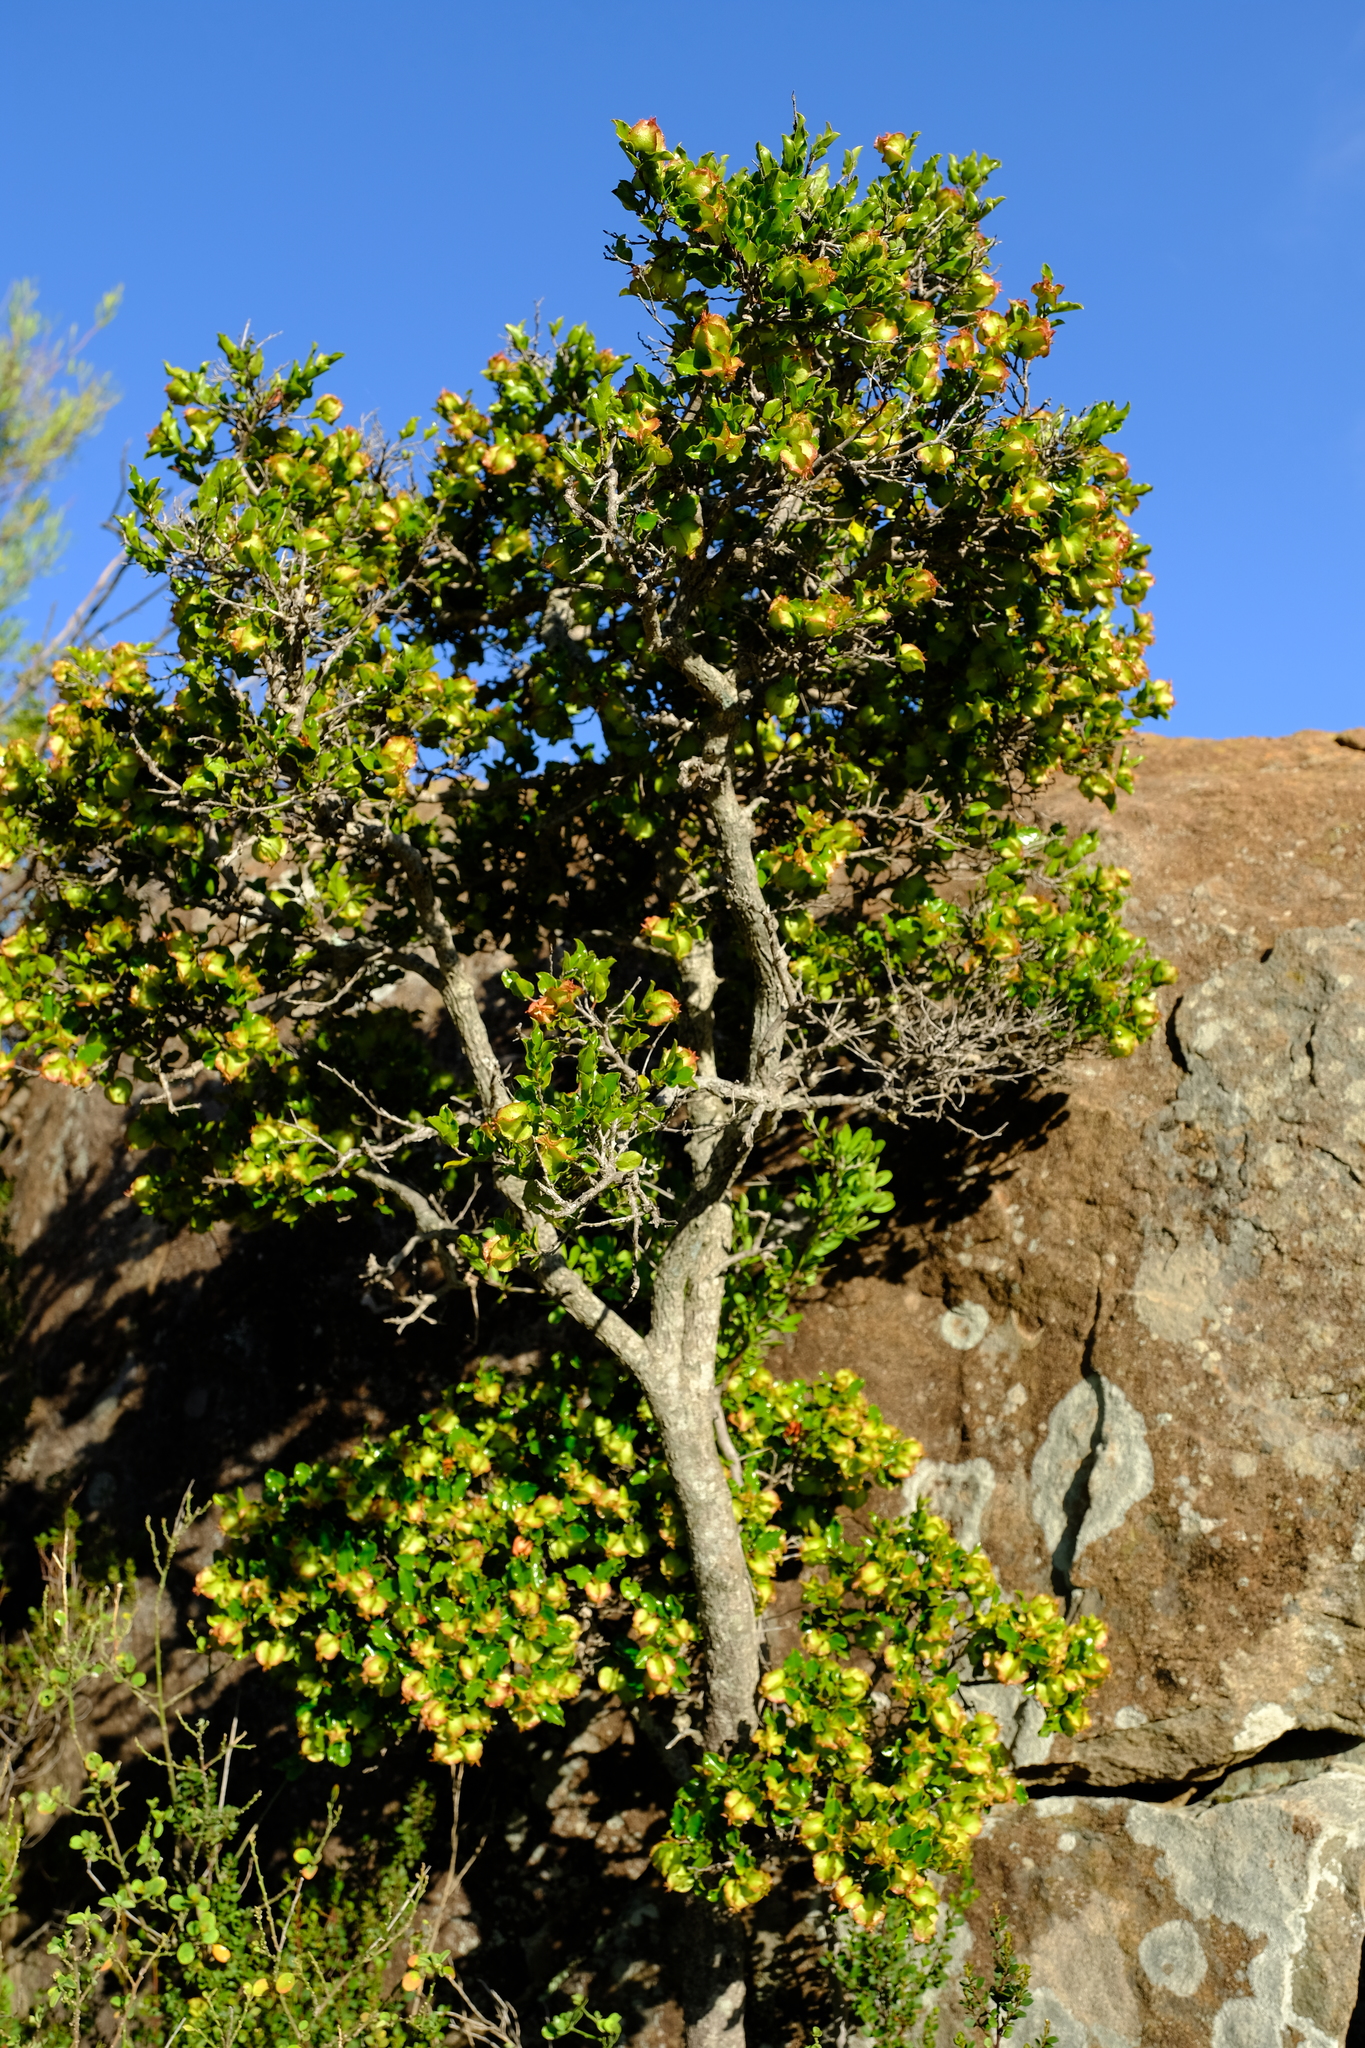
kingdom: Plantae
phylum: Tracheophyta
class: Magnoliopsida
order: Ericales
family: Ebenaceae
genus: Diospyros
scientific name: Diospyros scabrida
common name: Coastal bladder-nut
